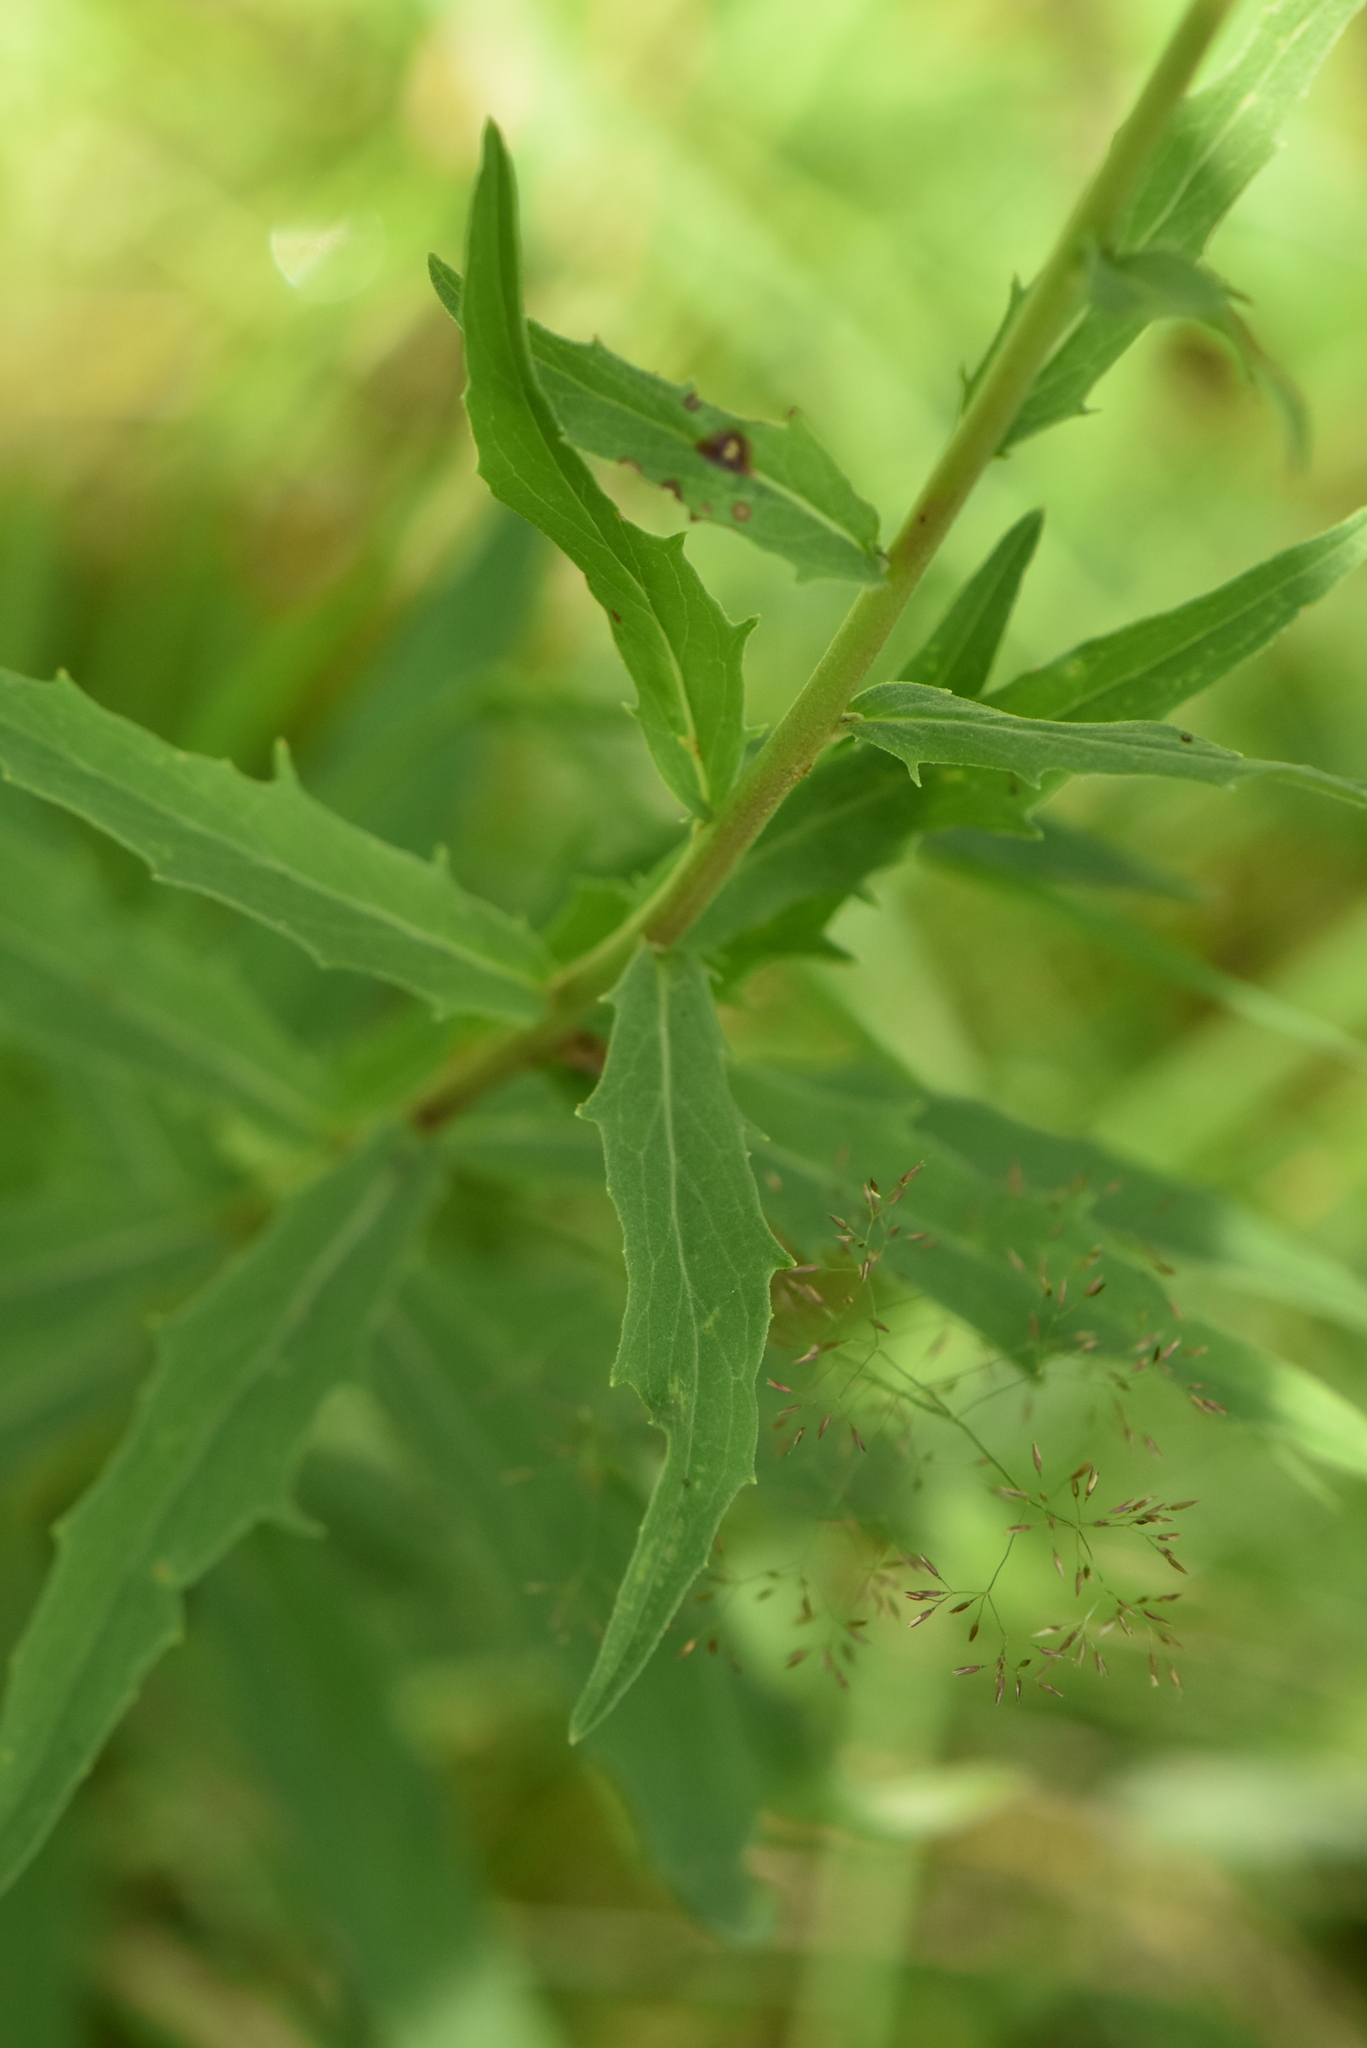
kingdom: Plantae
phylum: Tracheophyta
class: Magnoliopsida
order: Asterales
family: Asteraceae
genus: Hieracium
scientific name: Hieracium umbellatum
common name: Northern hawkweed
